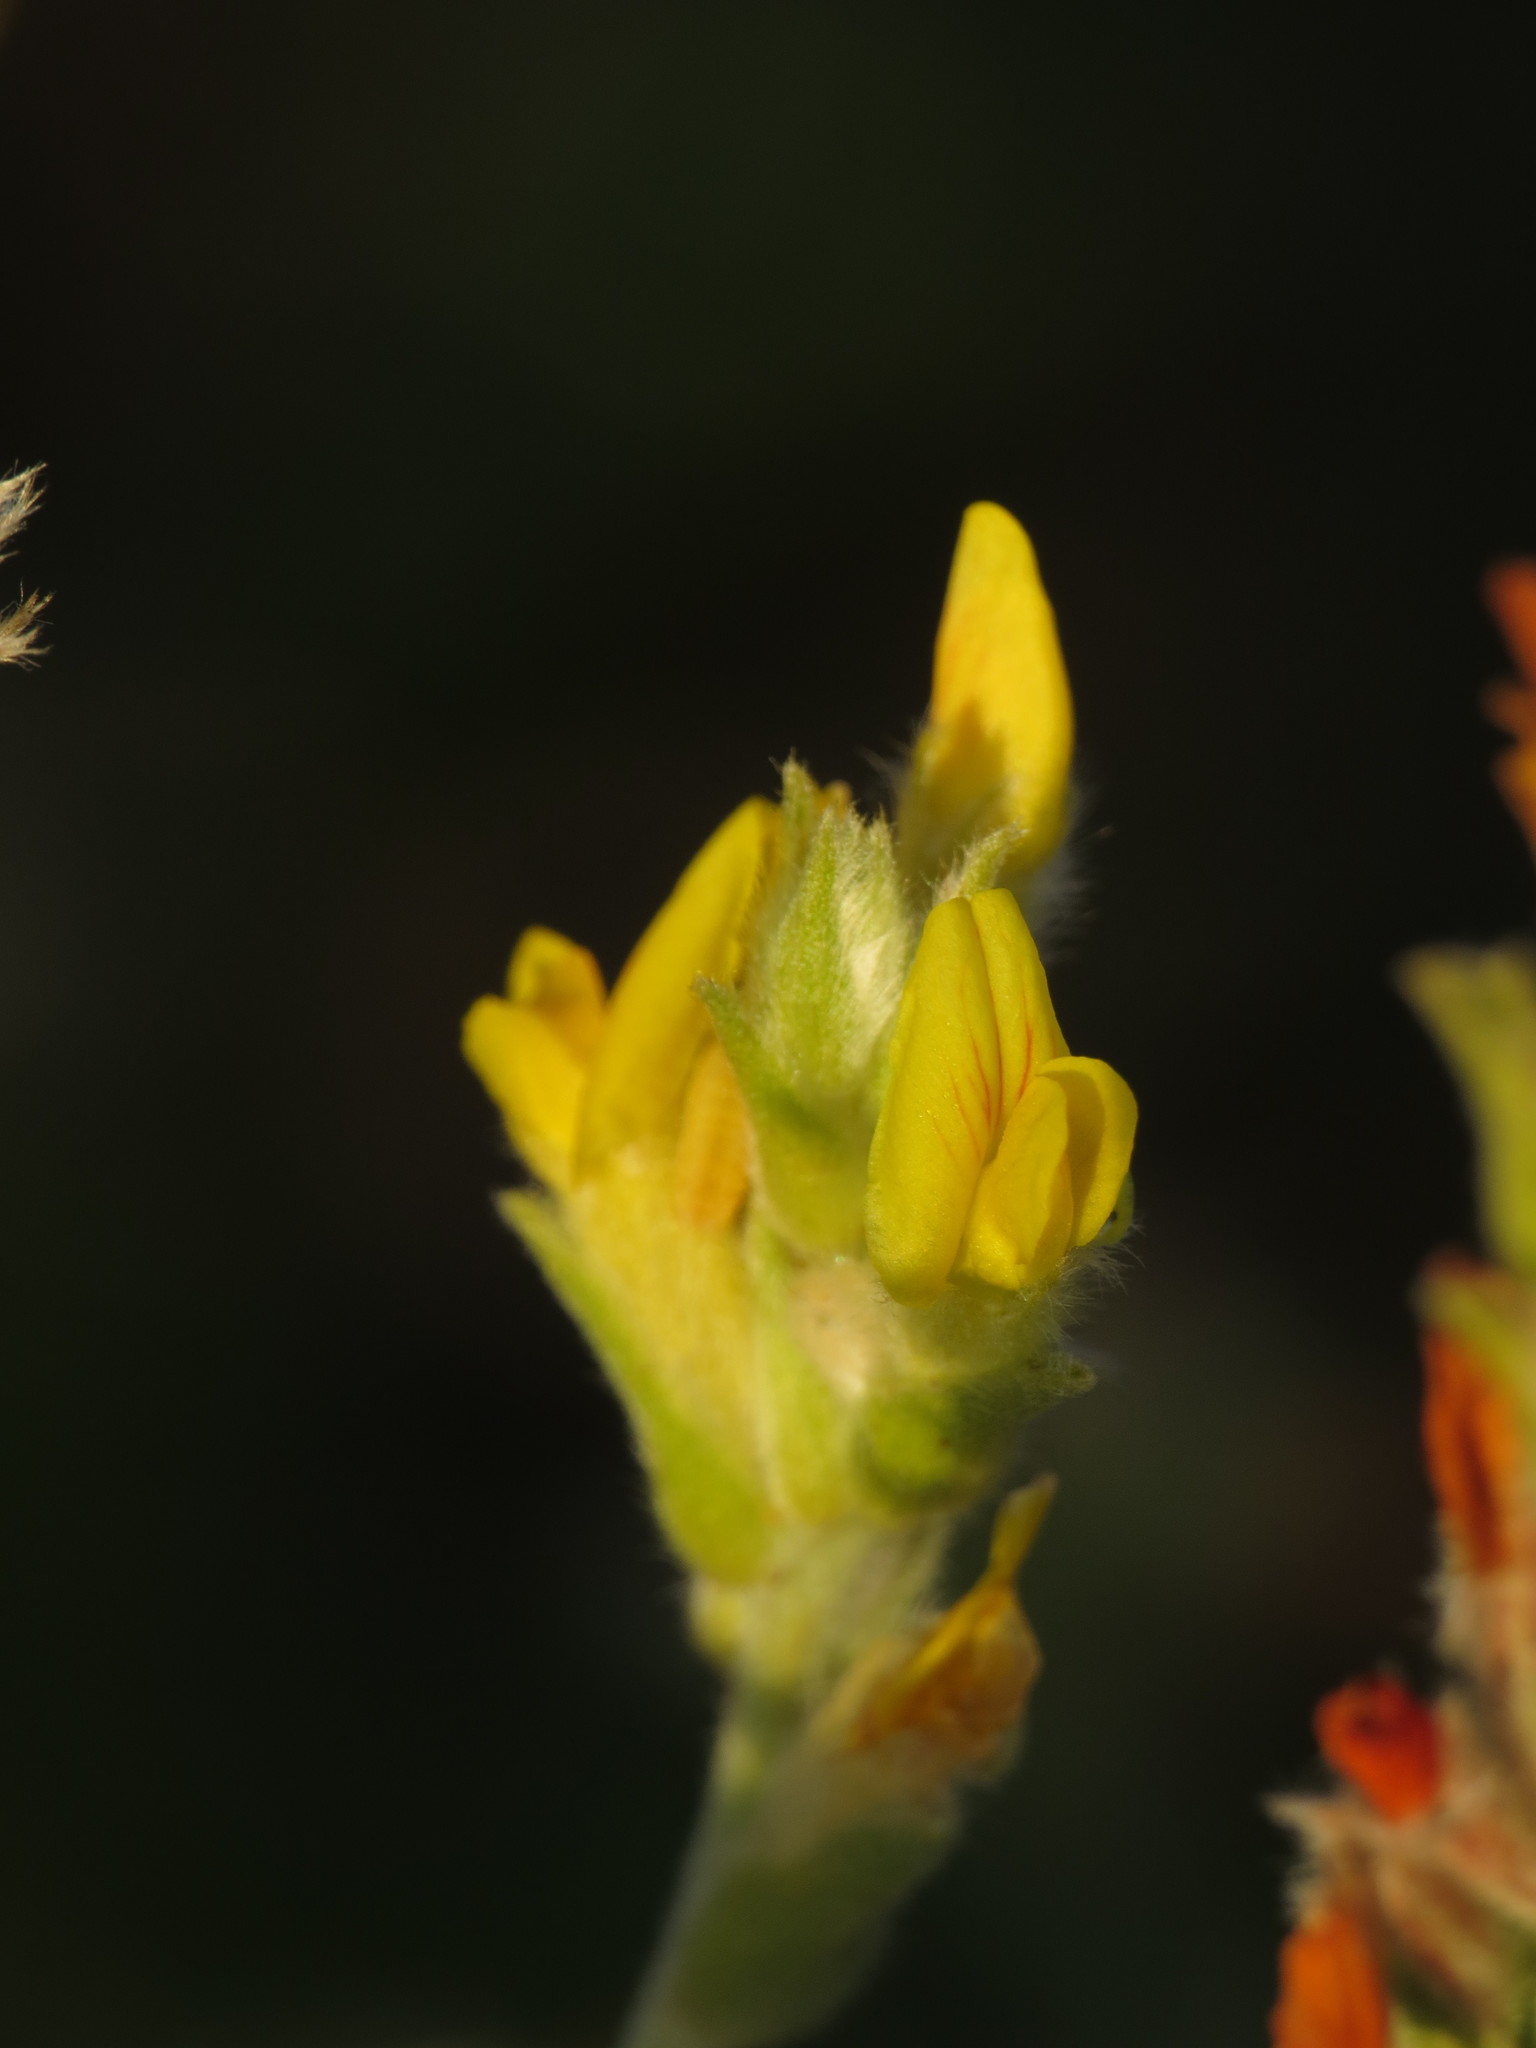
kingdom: Plantae
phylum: Tracheophyta
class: Magnoliopsida
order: Fabales
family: Fabaceae
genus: Anthyllis
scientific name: Anthyllis cytisoides
